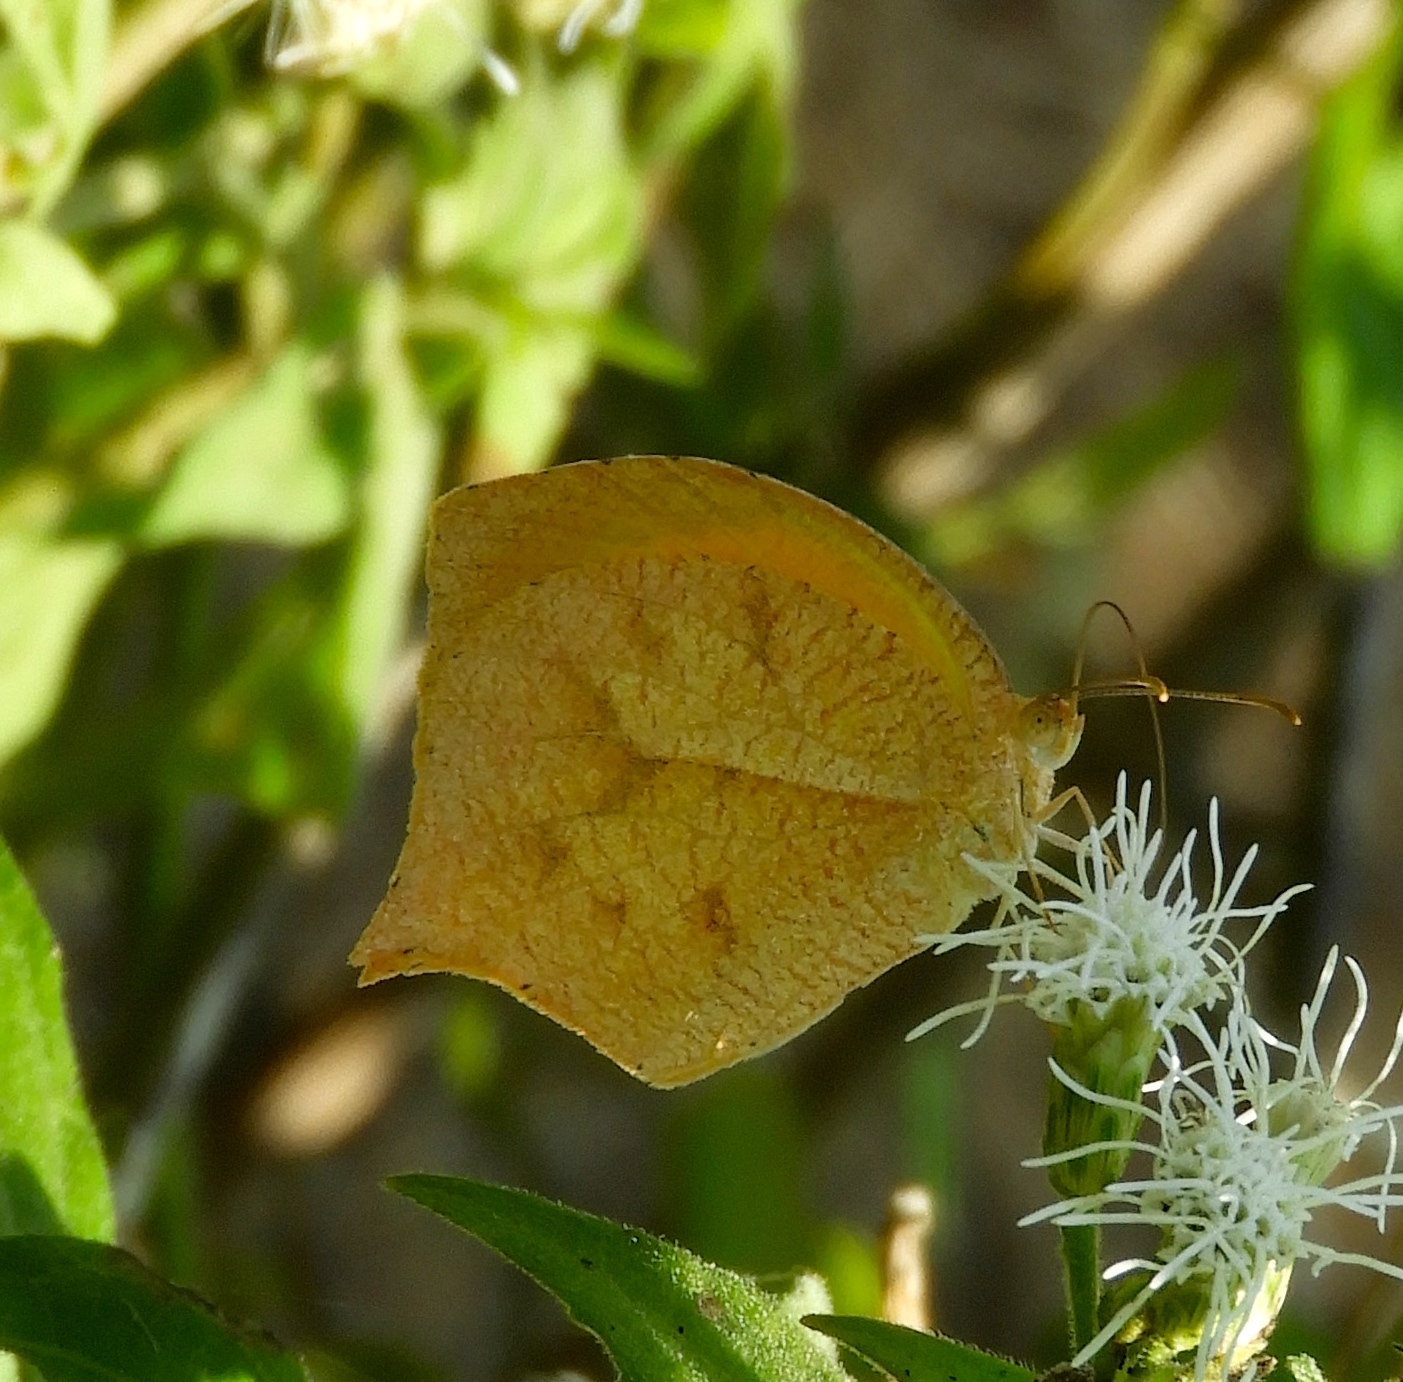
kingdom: Animalia
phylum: Arthropoda
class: Insecta
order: Lepidoptera
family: Pieridae
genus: Pyrisitia
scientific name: Pyrisitia proterpia
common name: Tailed orange
